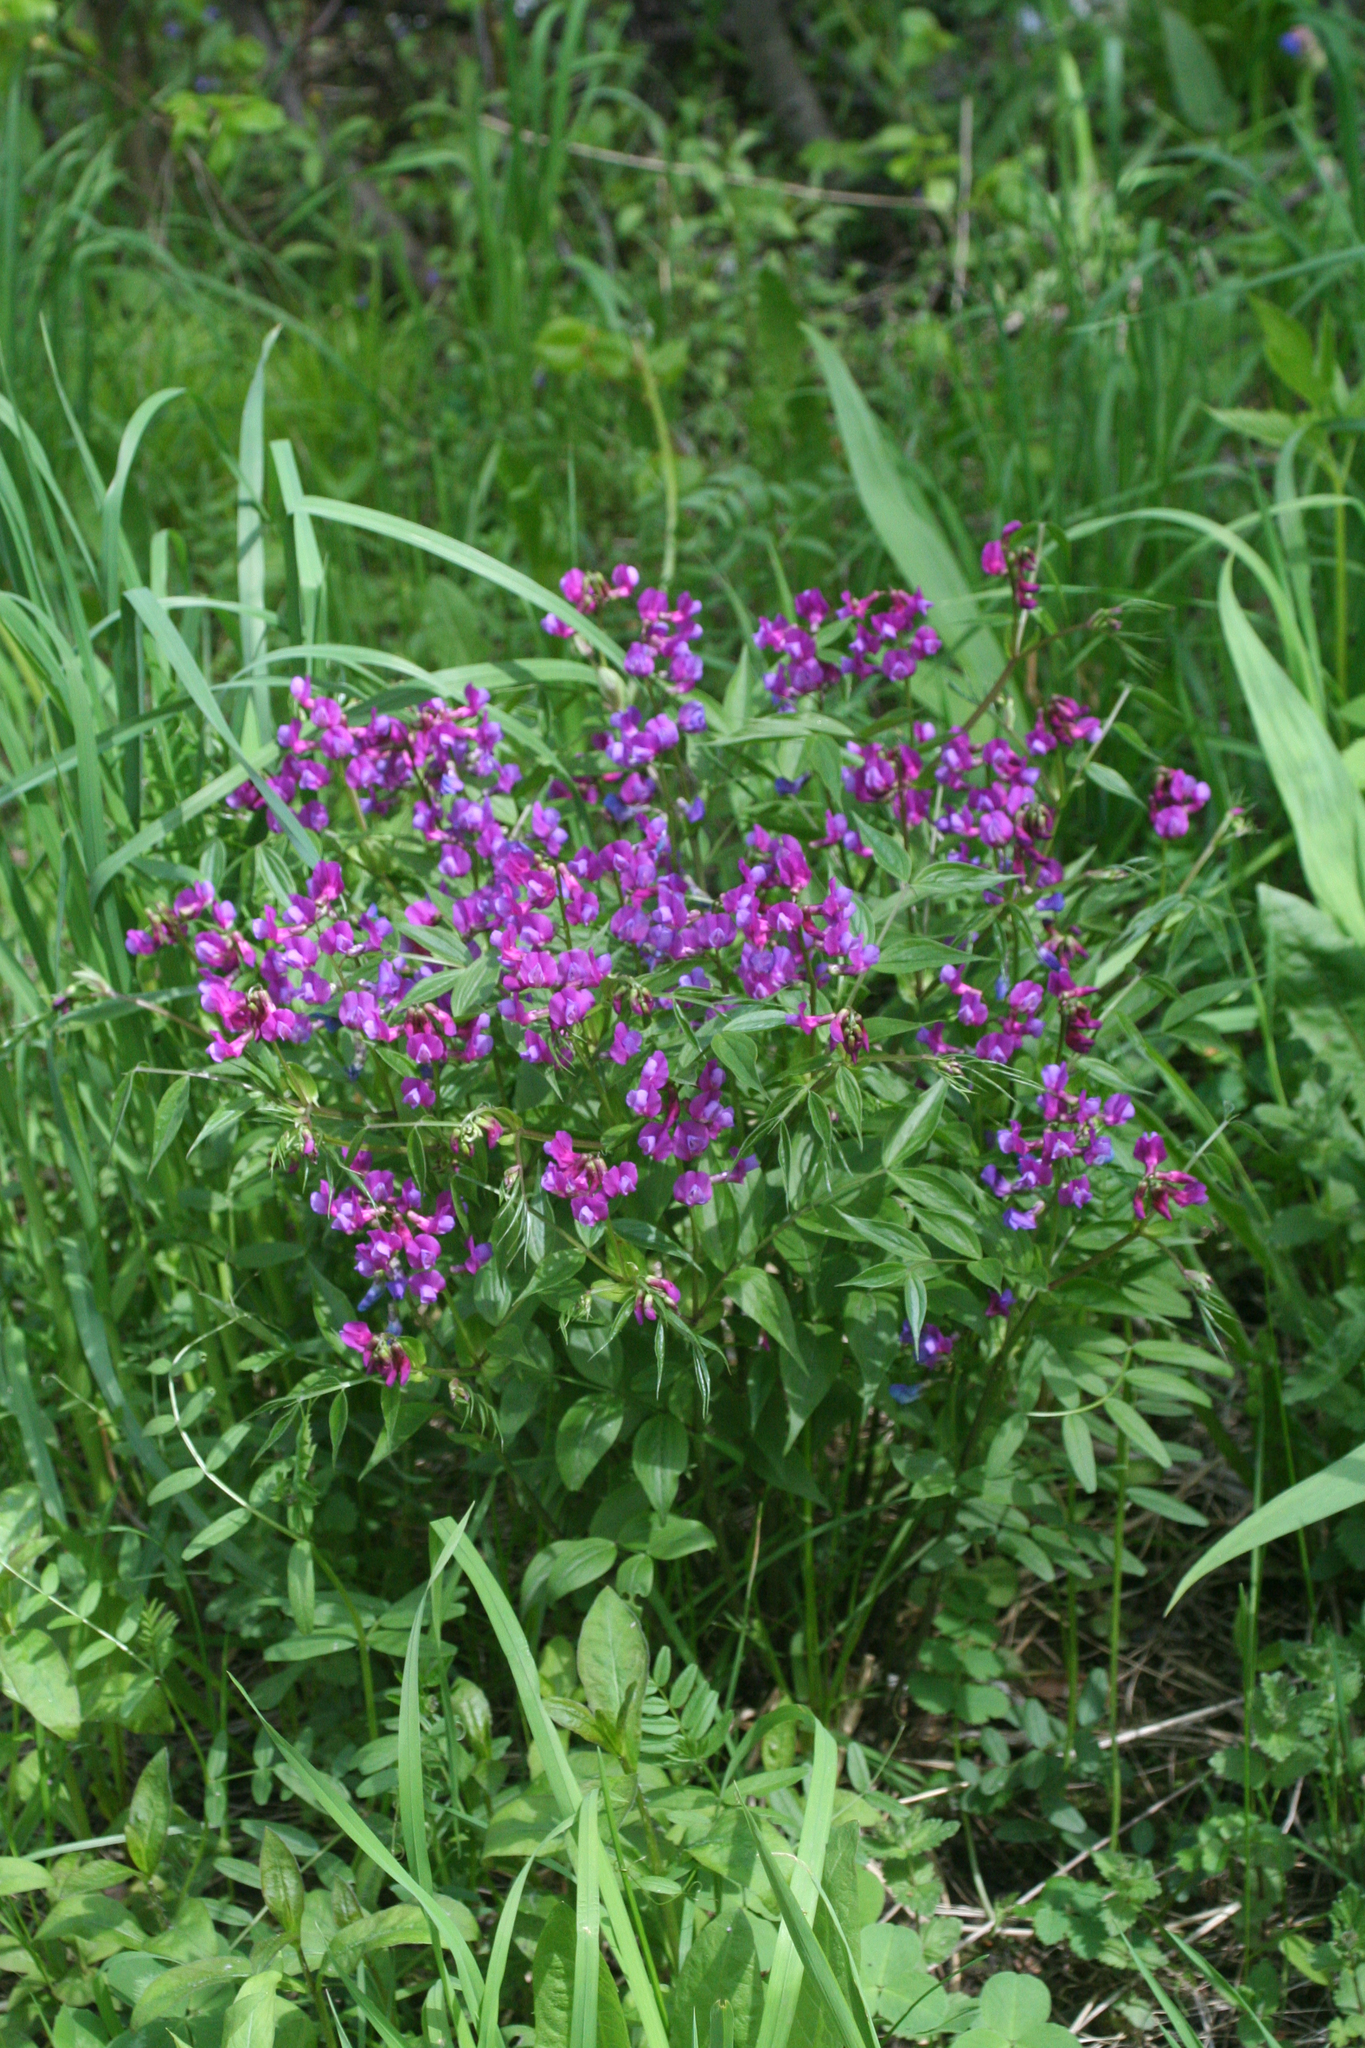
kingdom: Plantae
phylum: Tracheophyta
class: Magnoliopsida
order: Fabales
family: Fabaceae
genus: Lathyrus
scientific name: Lathyrus vernus
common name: Spring pea
